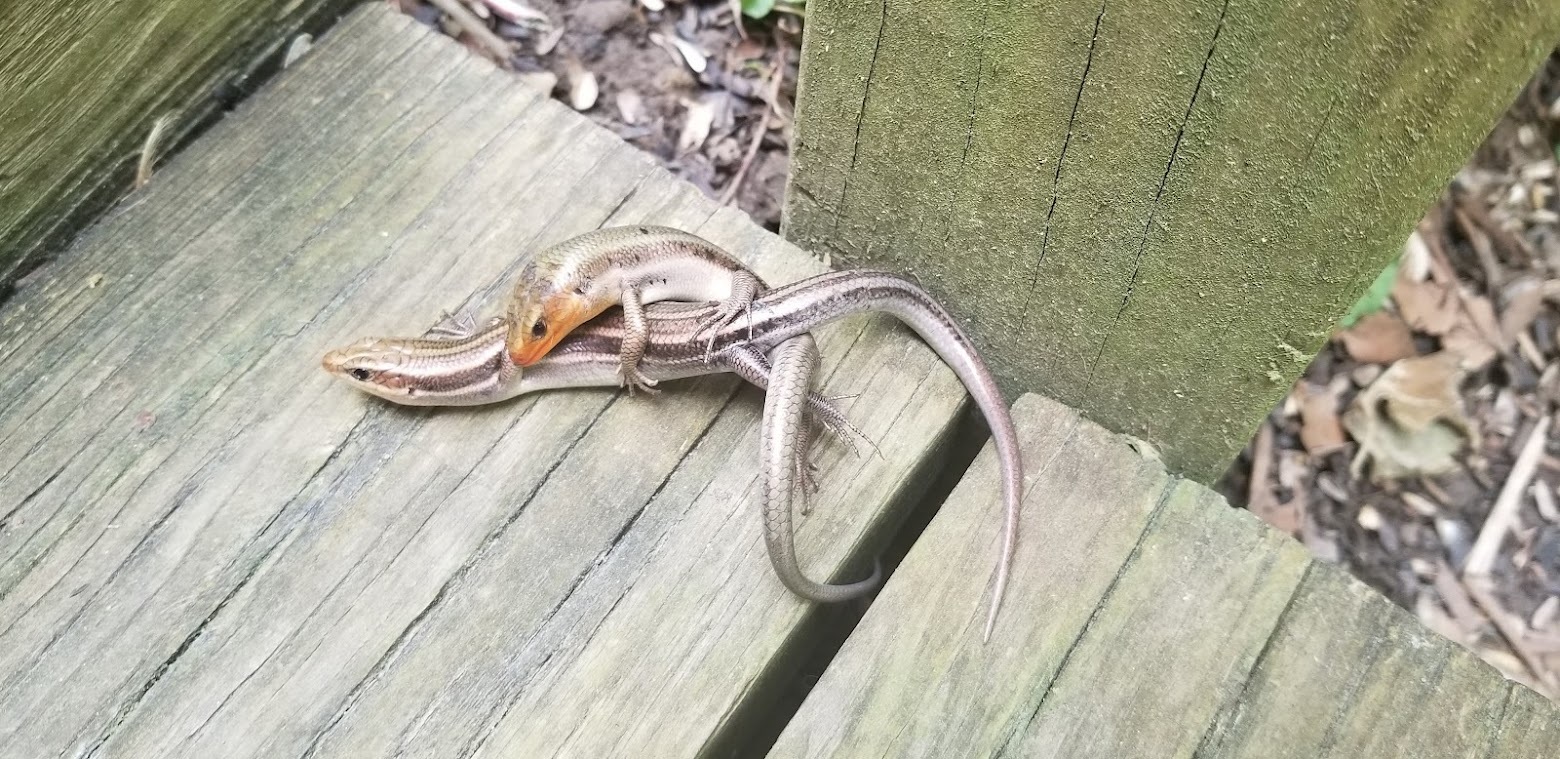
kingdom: Animalia
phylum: Chordata
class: Squamata
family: Scincidae
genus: Plestiodon
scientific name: Plestiodon fasciatus
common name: Five-lined skink
